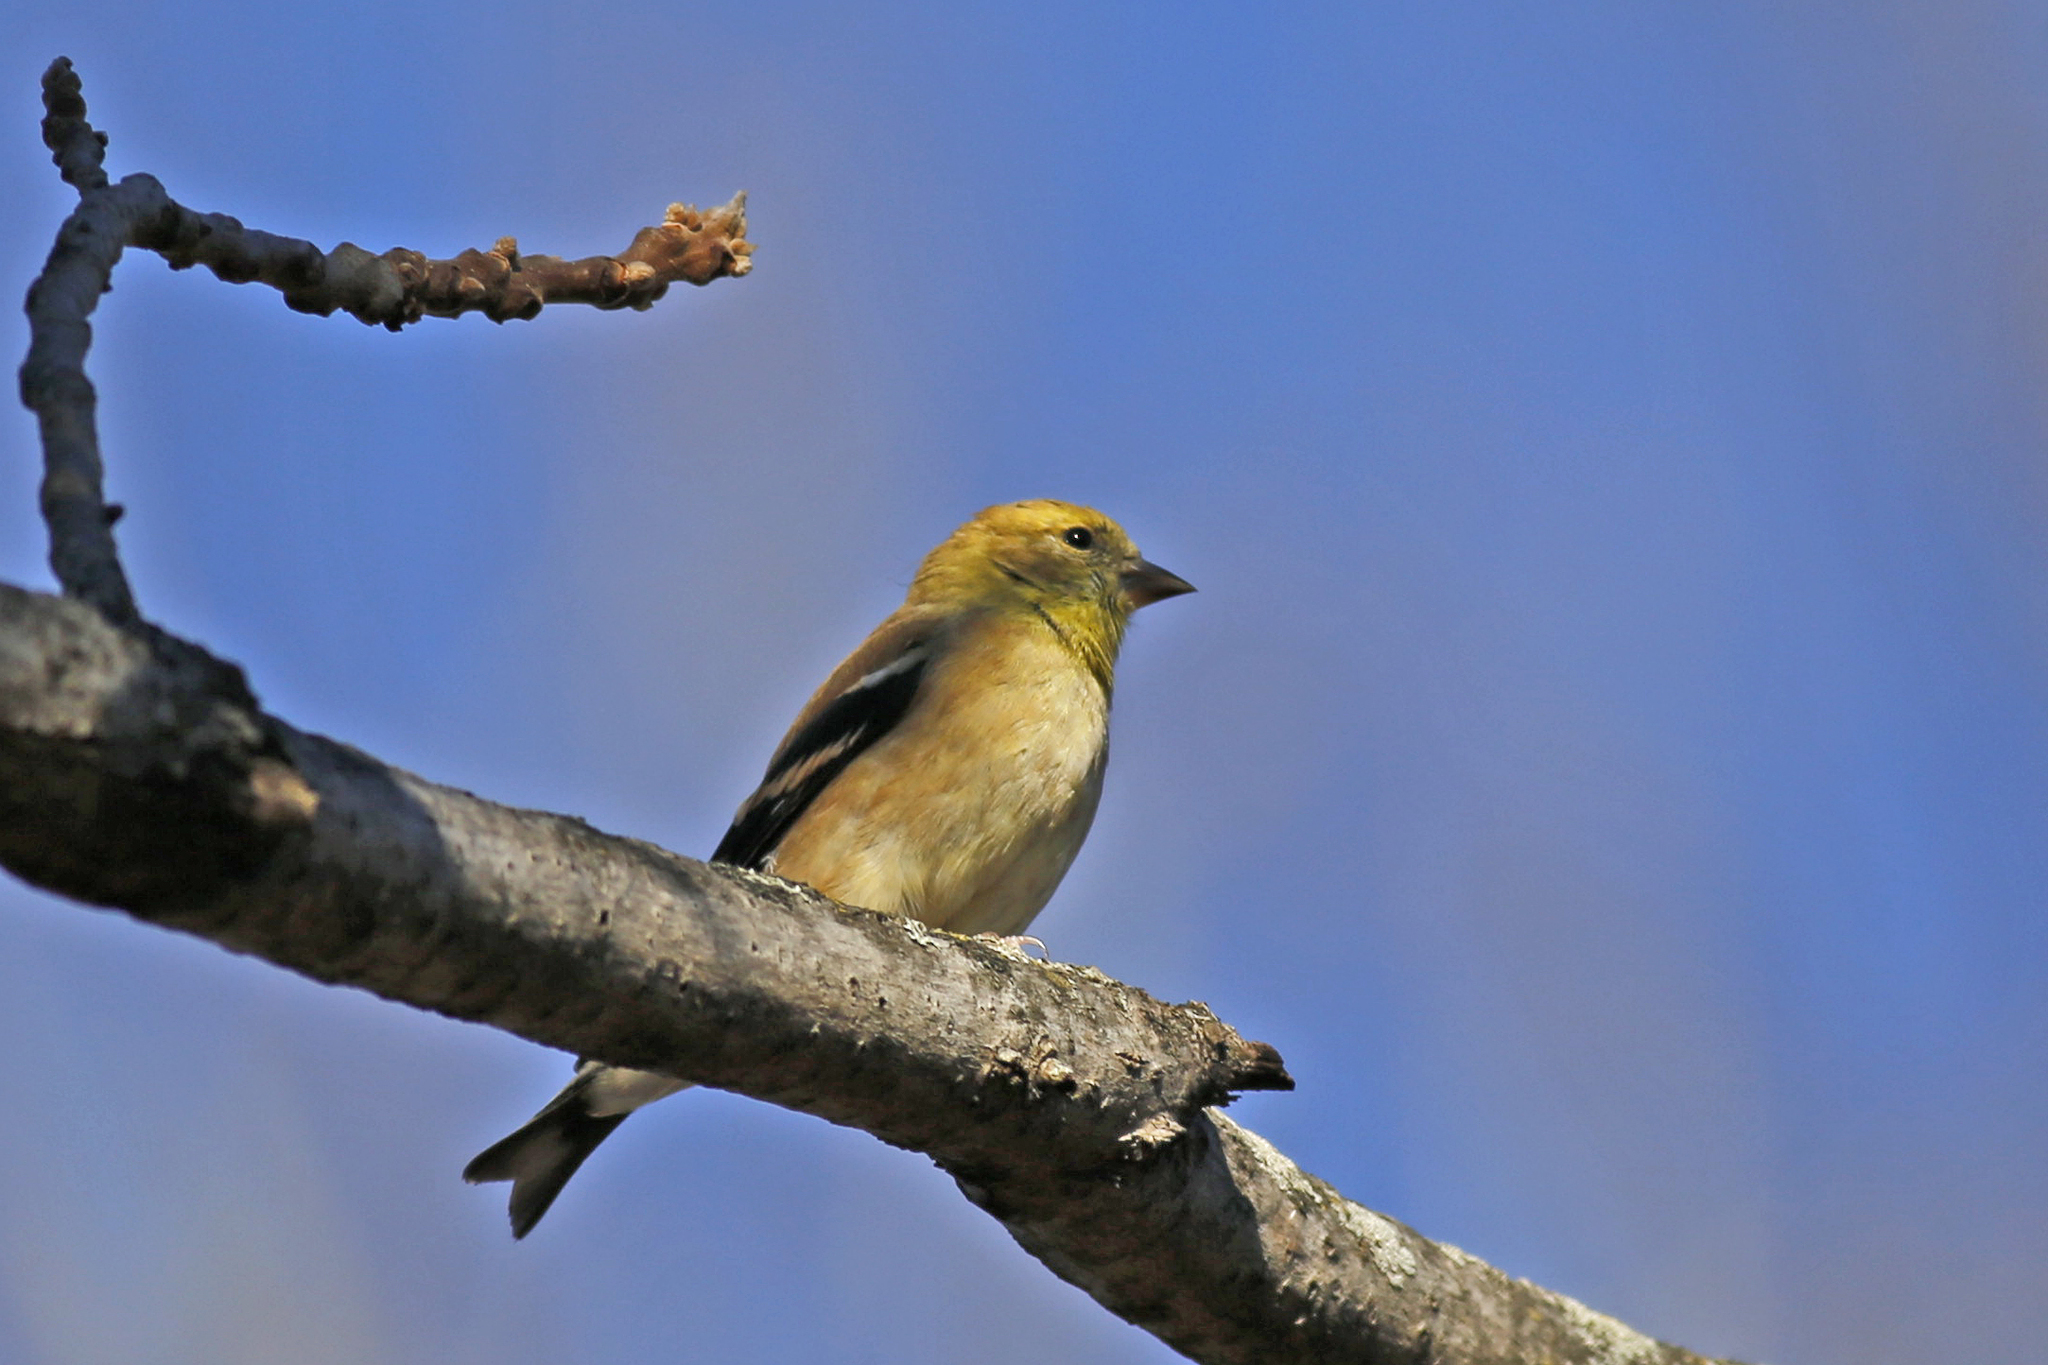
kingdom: Animalia
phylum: Chordata
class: Aves
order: Passeriformes
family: Fringillidae
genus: Spinus
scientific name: Spinus tristis
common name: American goldfinch
